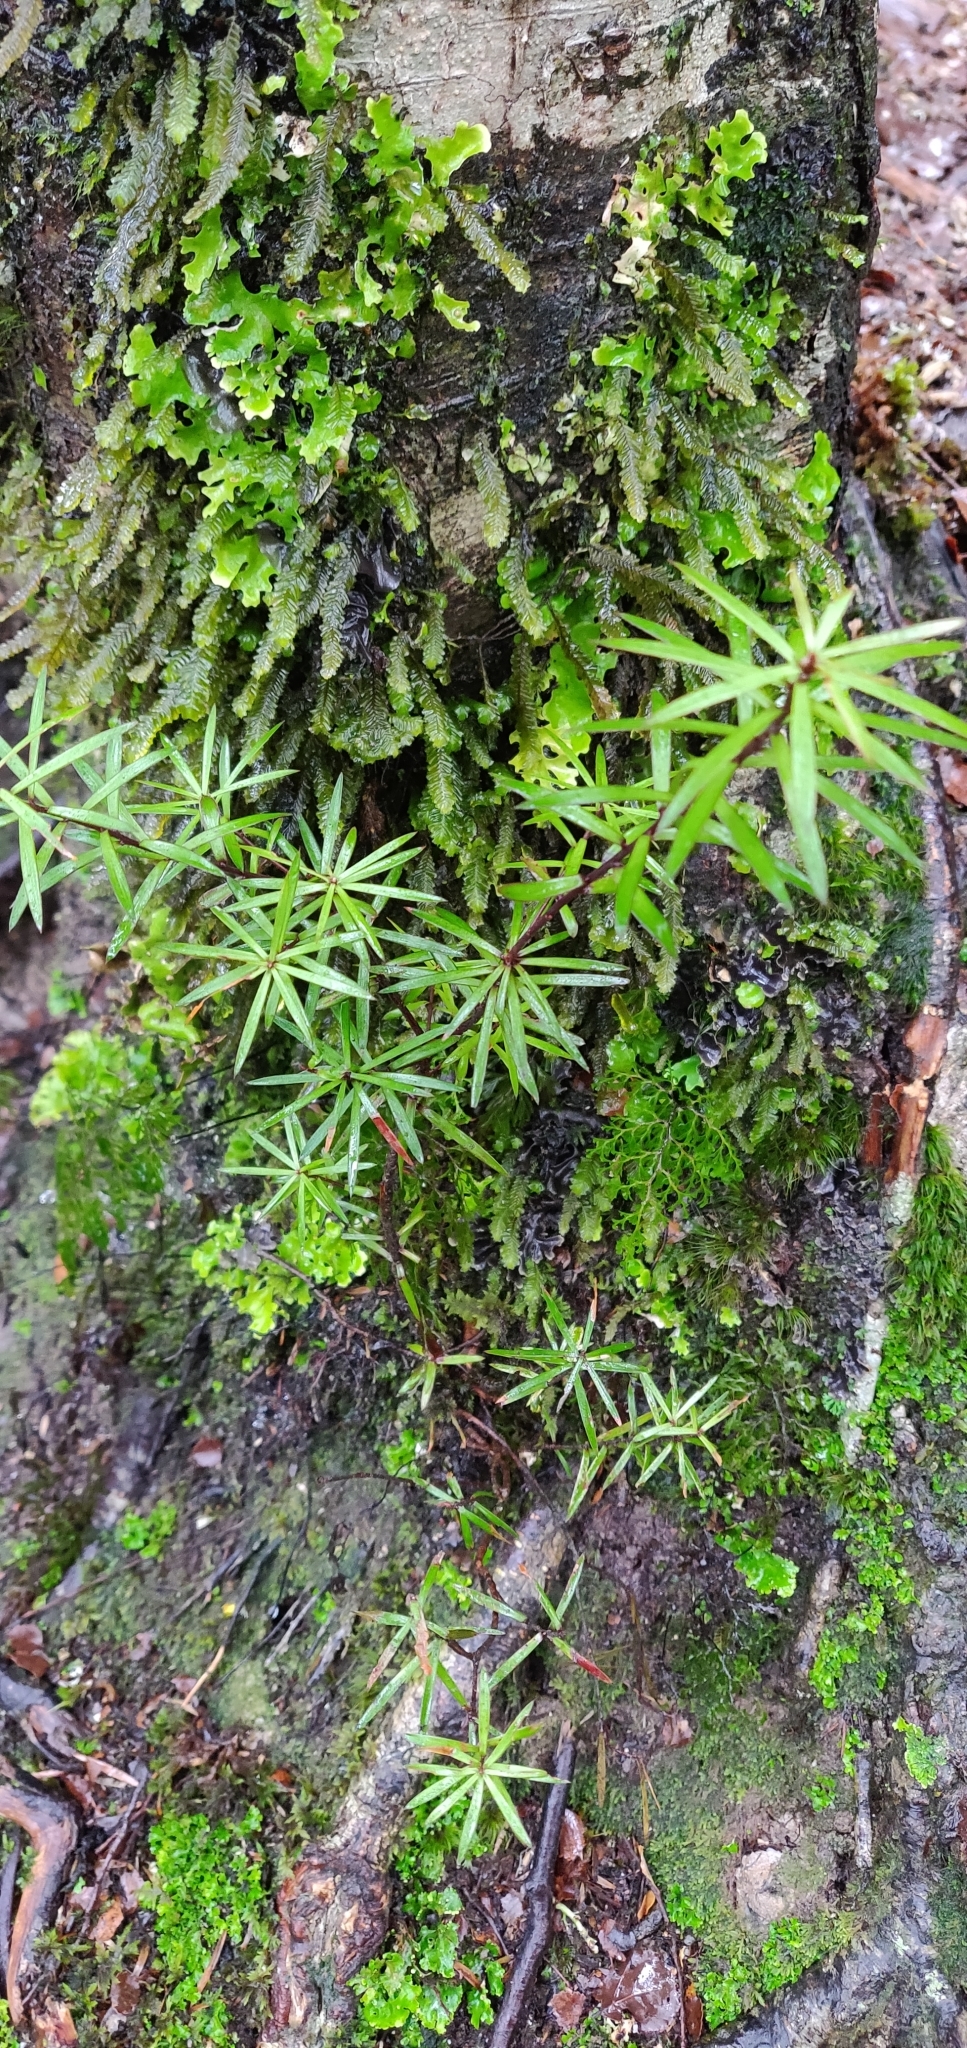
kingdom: Plantae
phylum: Tracheophyta
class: Magnoliopsida
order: Ericales
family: Ericaceae
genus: Leucopogon
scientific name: Leucopogon fasciculatus
